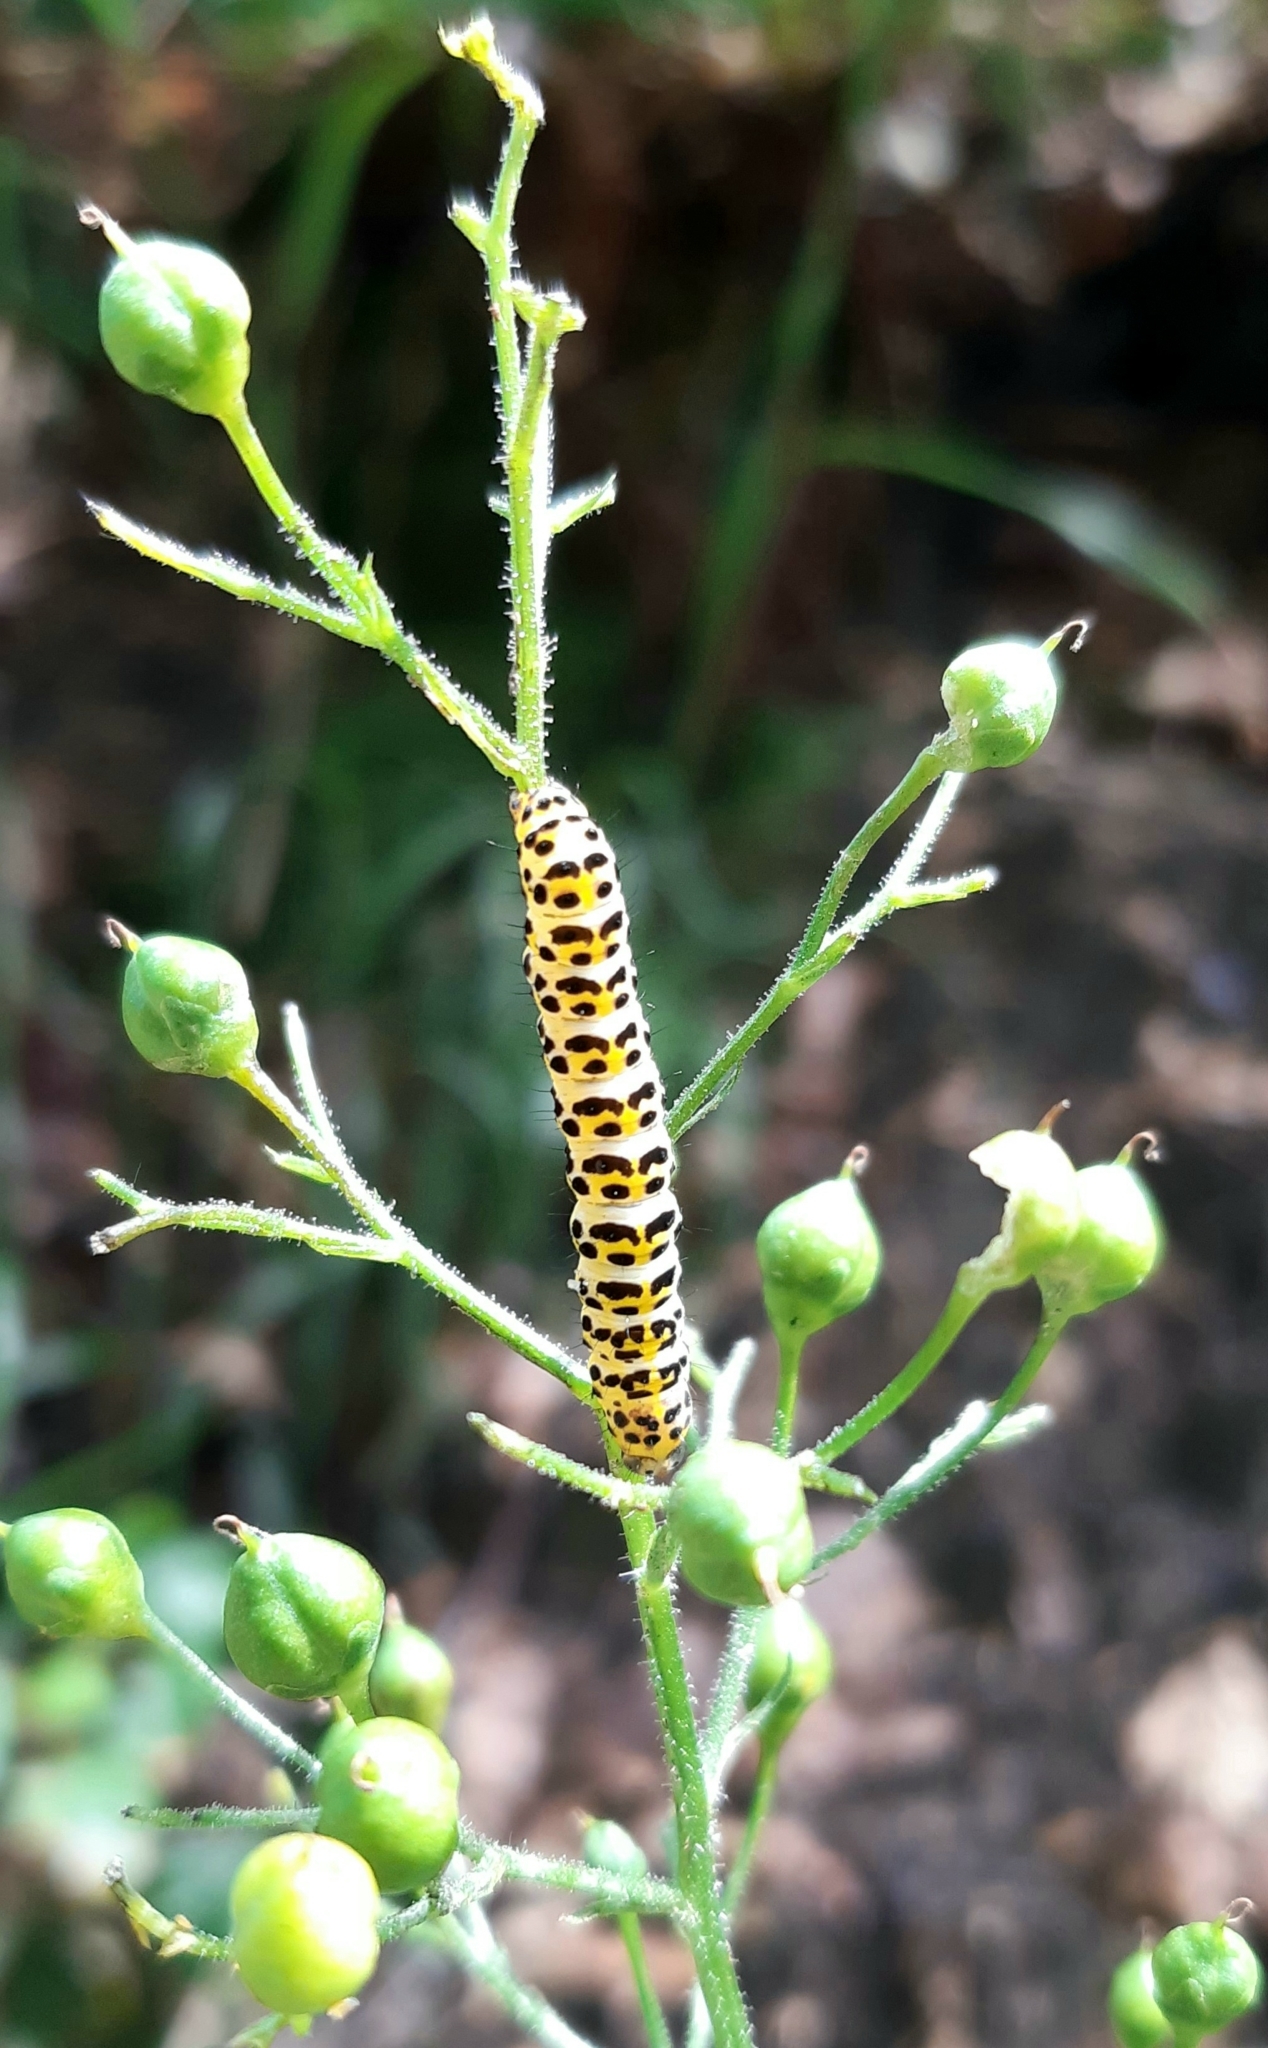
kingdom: Animalia
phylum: Arthropoda
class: Insecta
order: Lepidoptera
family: Noctuidae
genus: Shargacucullia
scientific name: Shargacucullia scrophulariae
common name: Water betony
